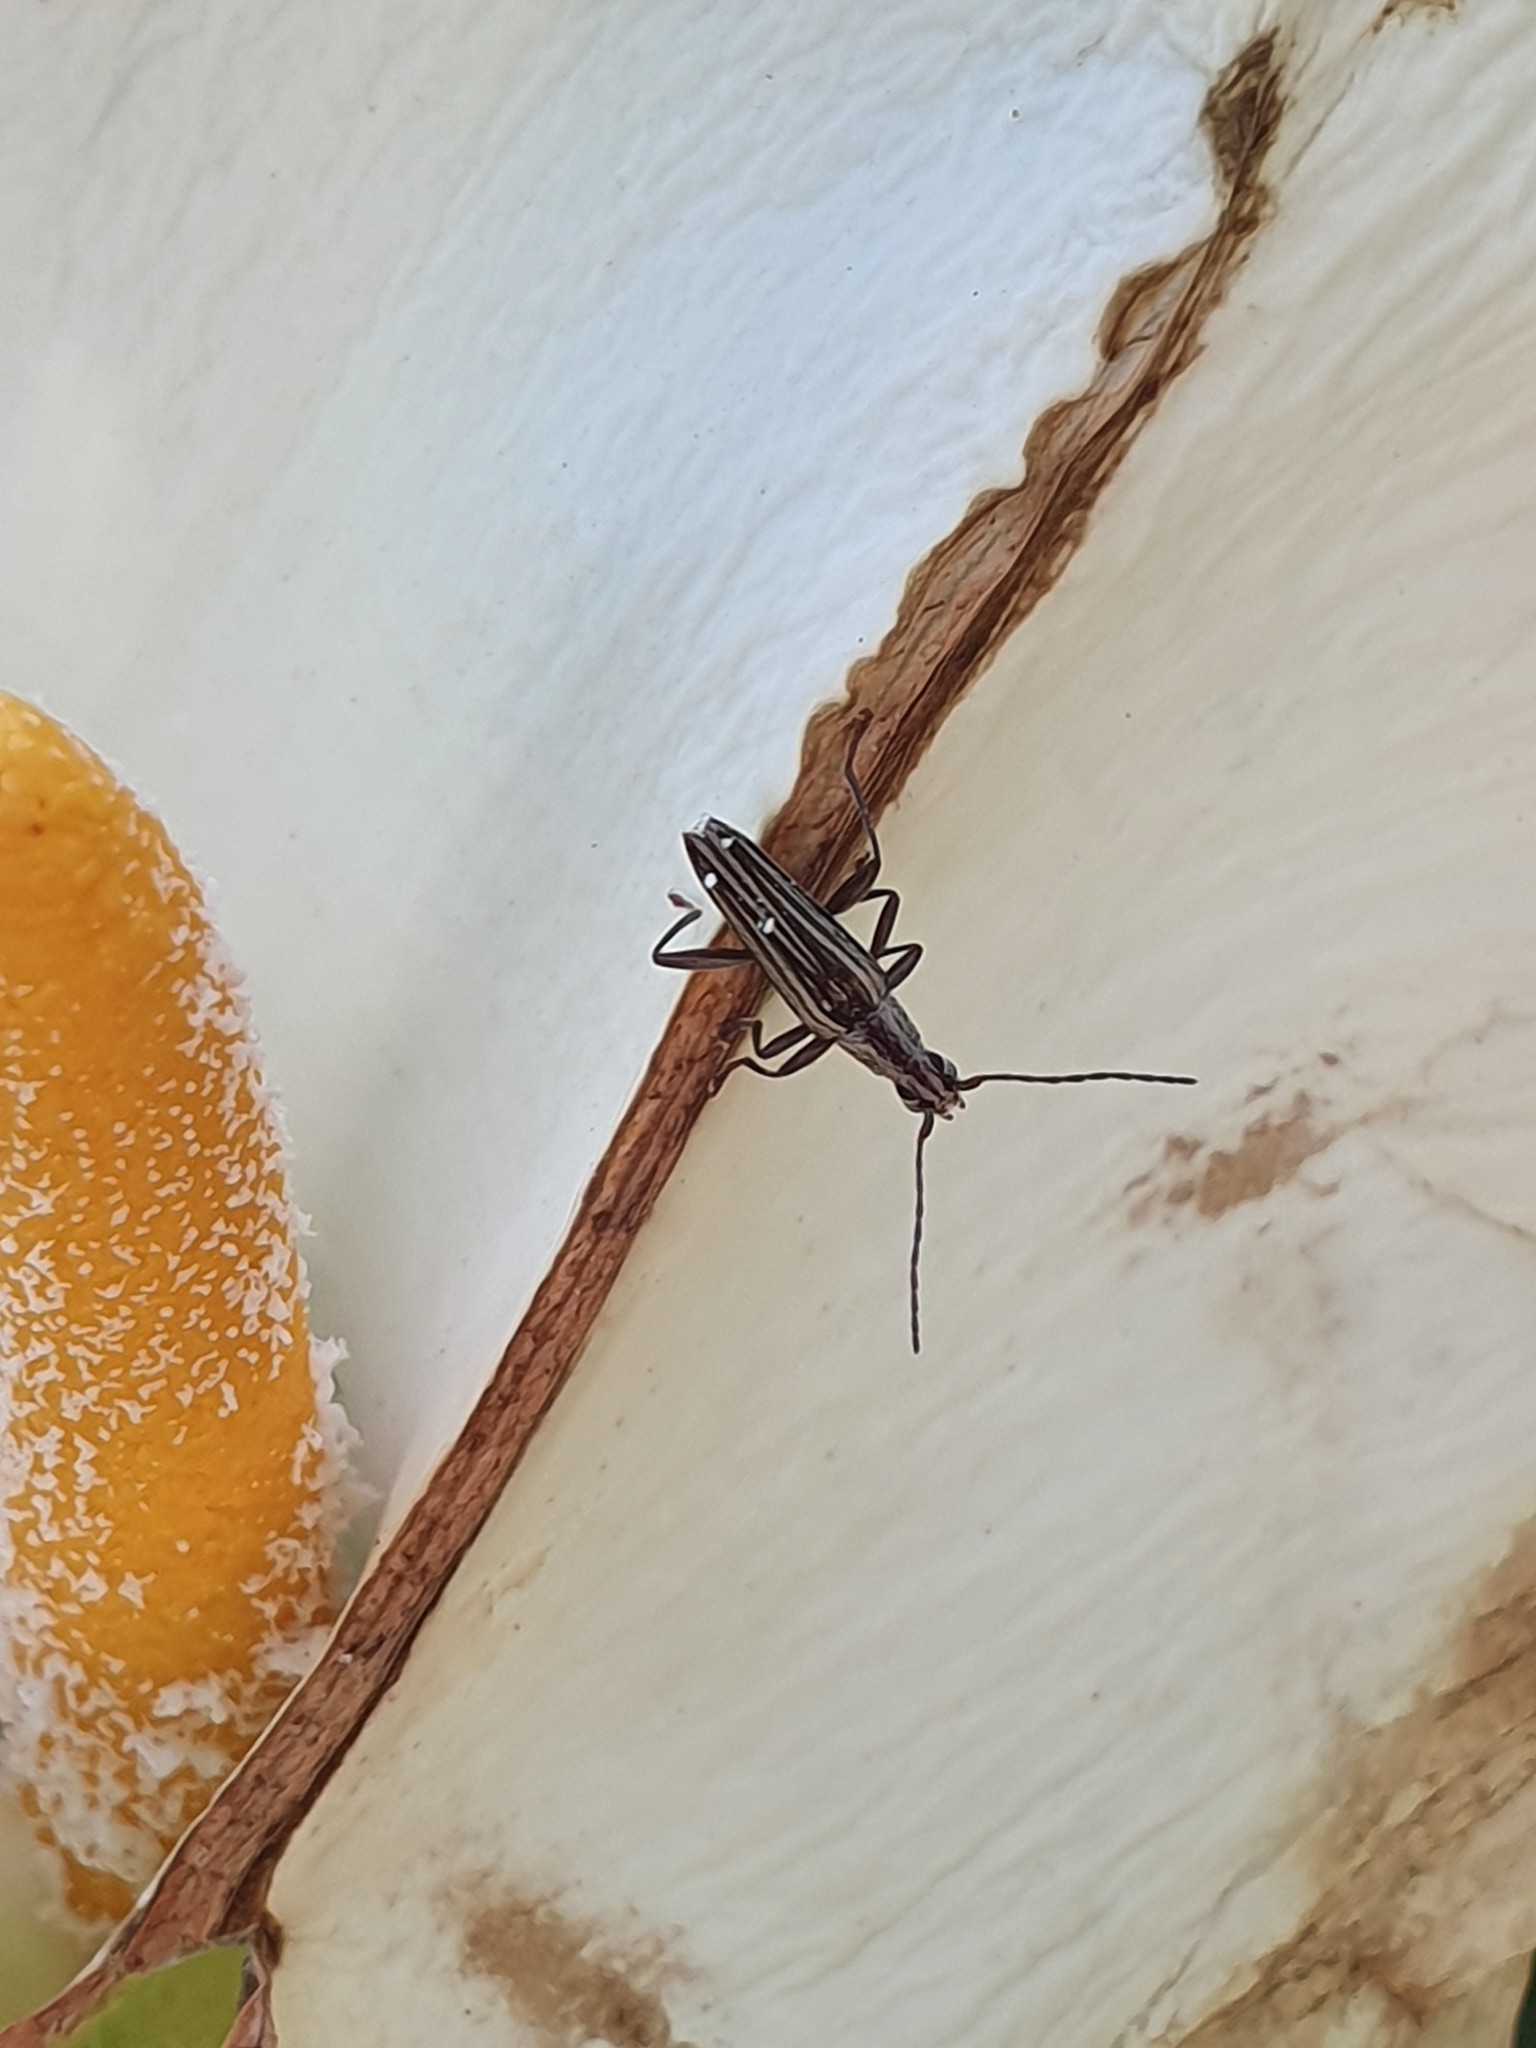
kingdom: Animalia
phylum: Arthropoda
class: Insecta
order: Coleoptera
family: Cerambycidae
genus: Coptomma
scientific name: Coptomma sulcatum
